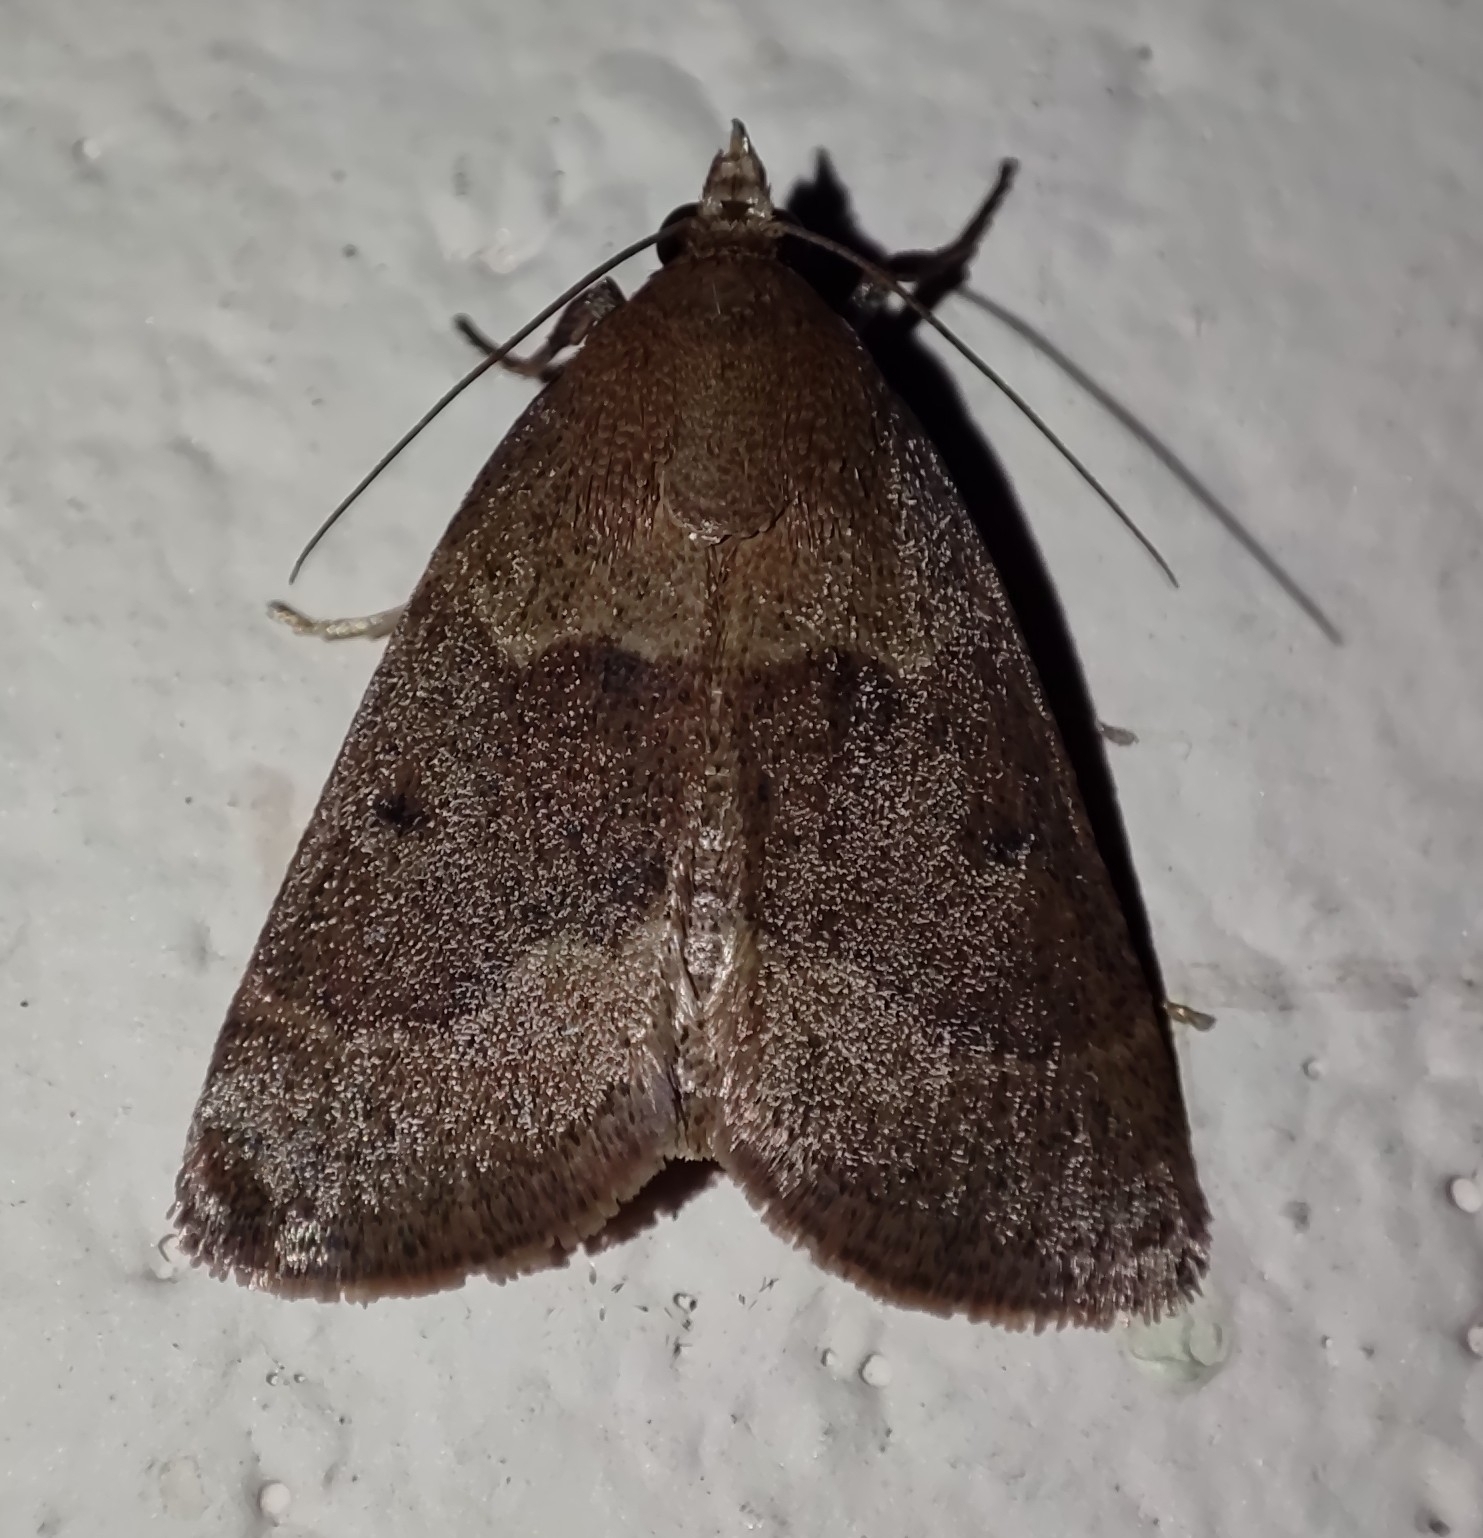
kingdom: Animalia
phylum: Arthropoda
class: Insecta
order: Lepidoptera
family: Pyralidae
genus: Arippara
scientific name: Arippara indicator
